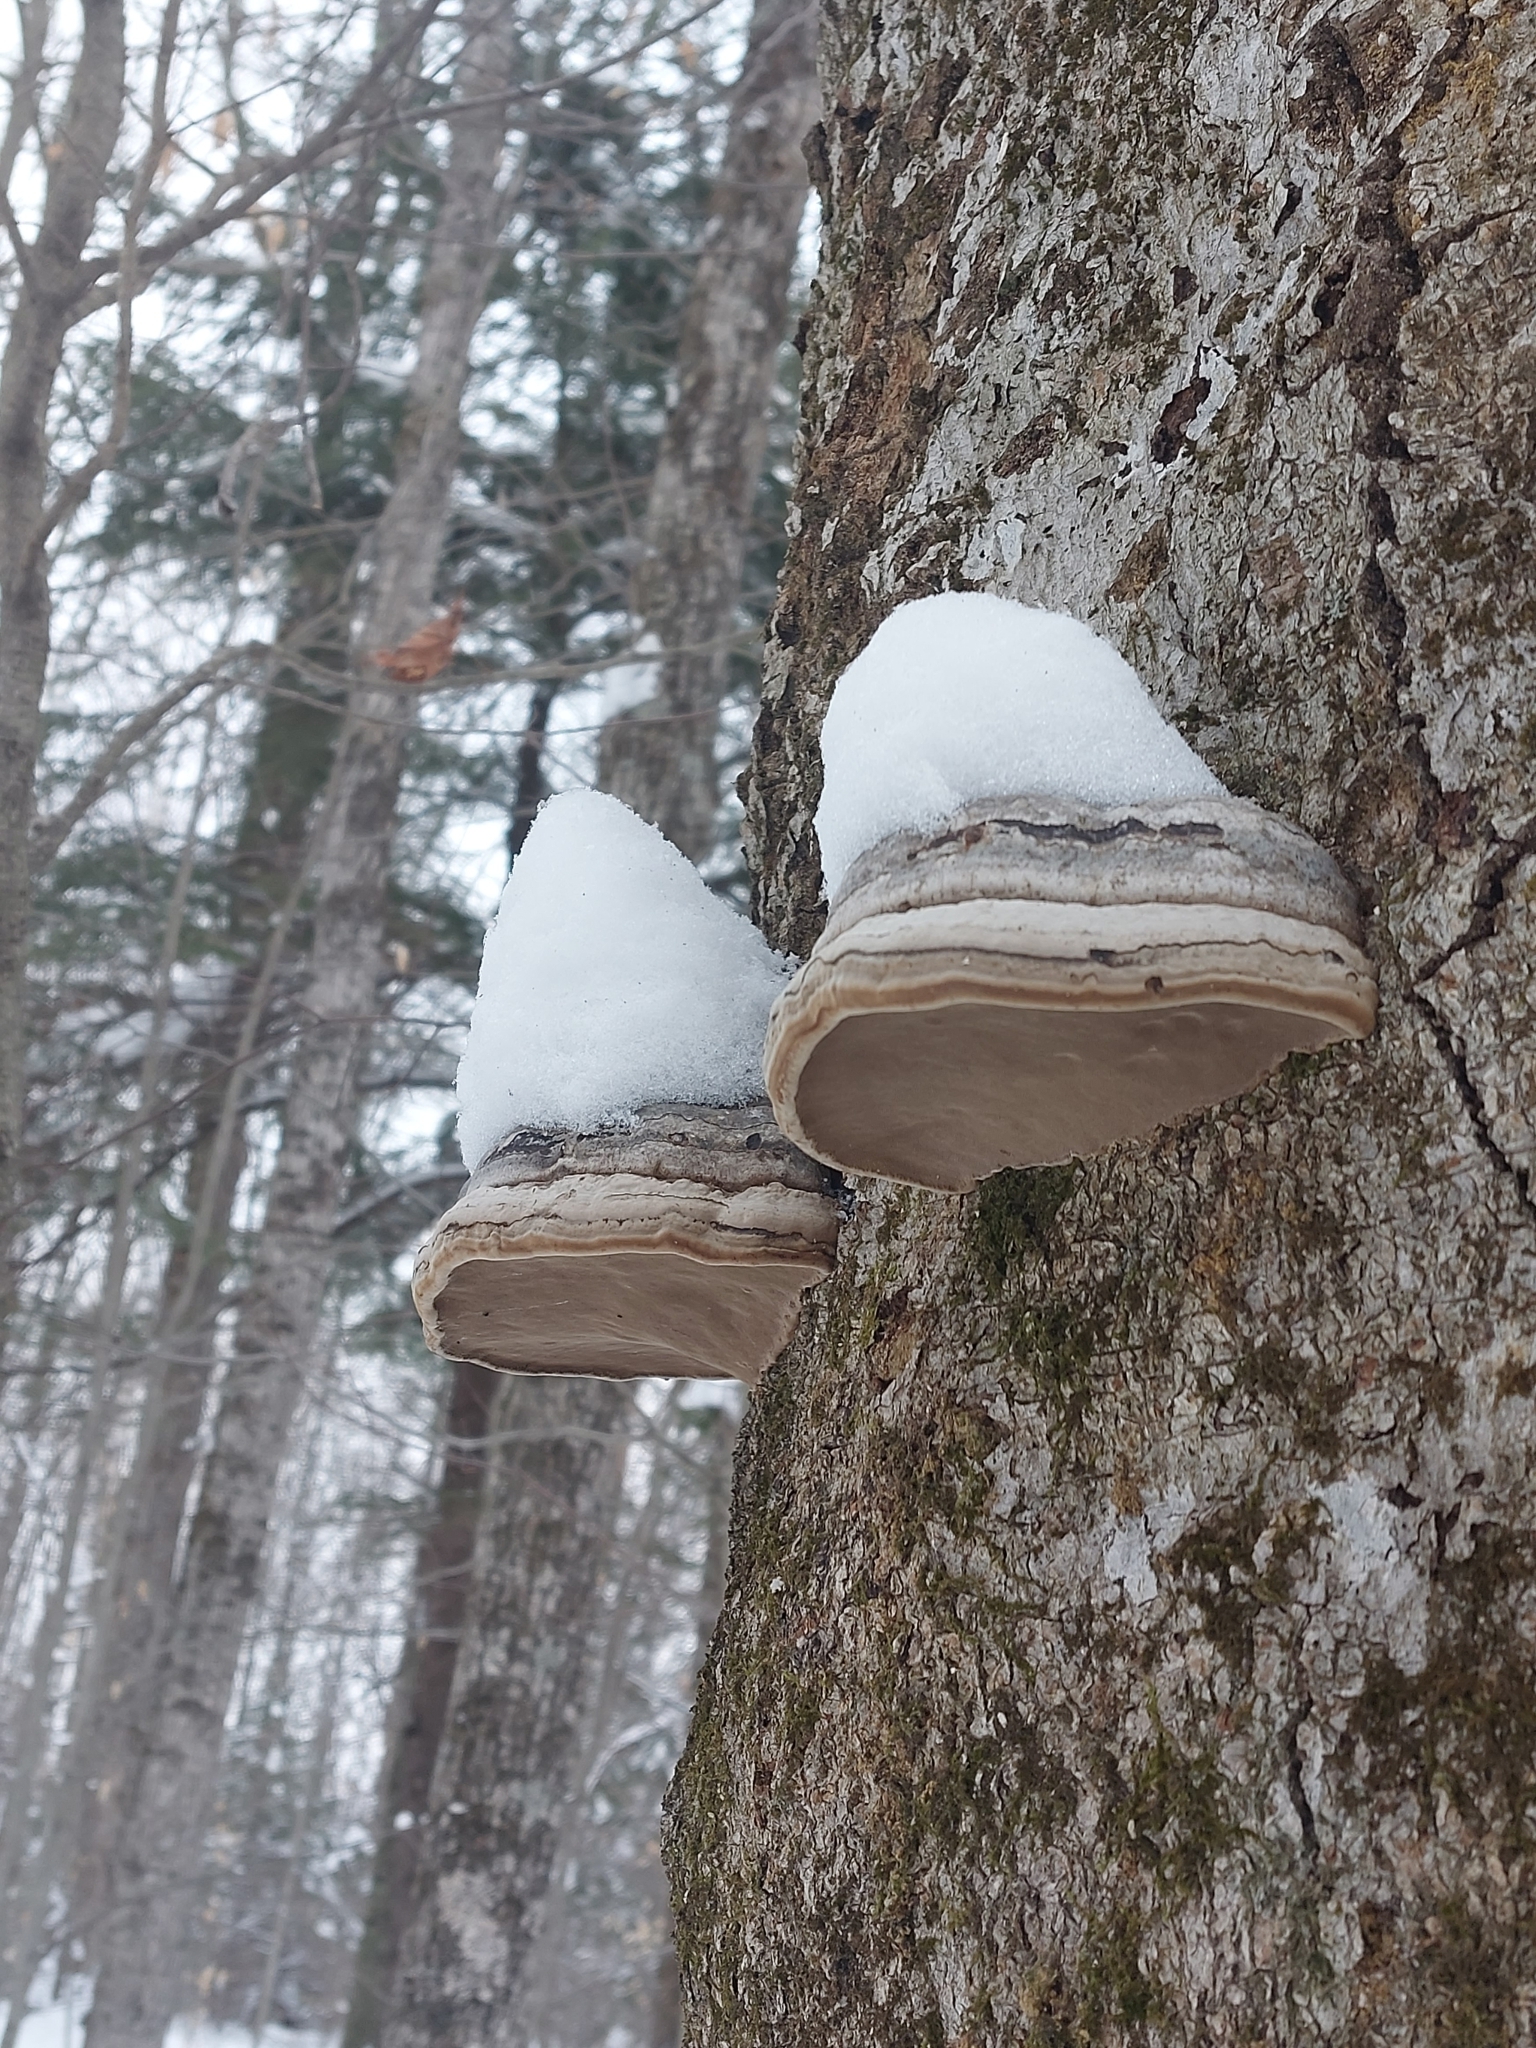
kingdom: Fungi
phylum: Basidiomycota
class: Agaricomycetes
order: Polyporales
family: Polyporaceae
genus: Fomes
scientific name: Fomes fomentarius
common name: Hoof fungus
